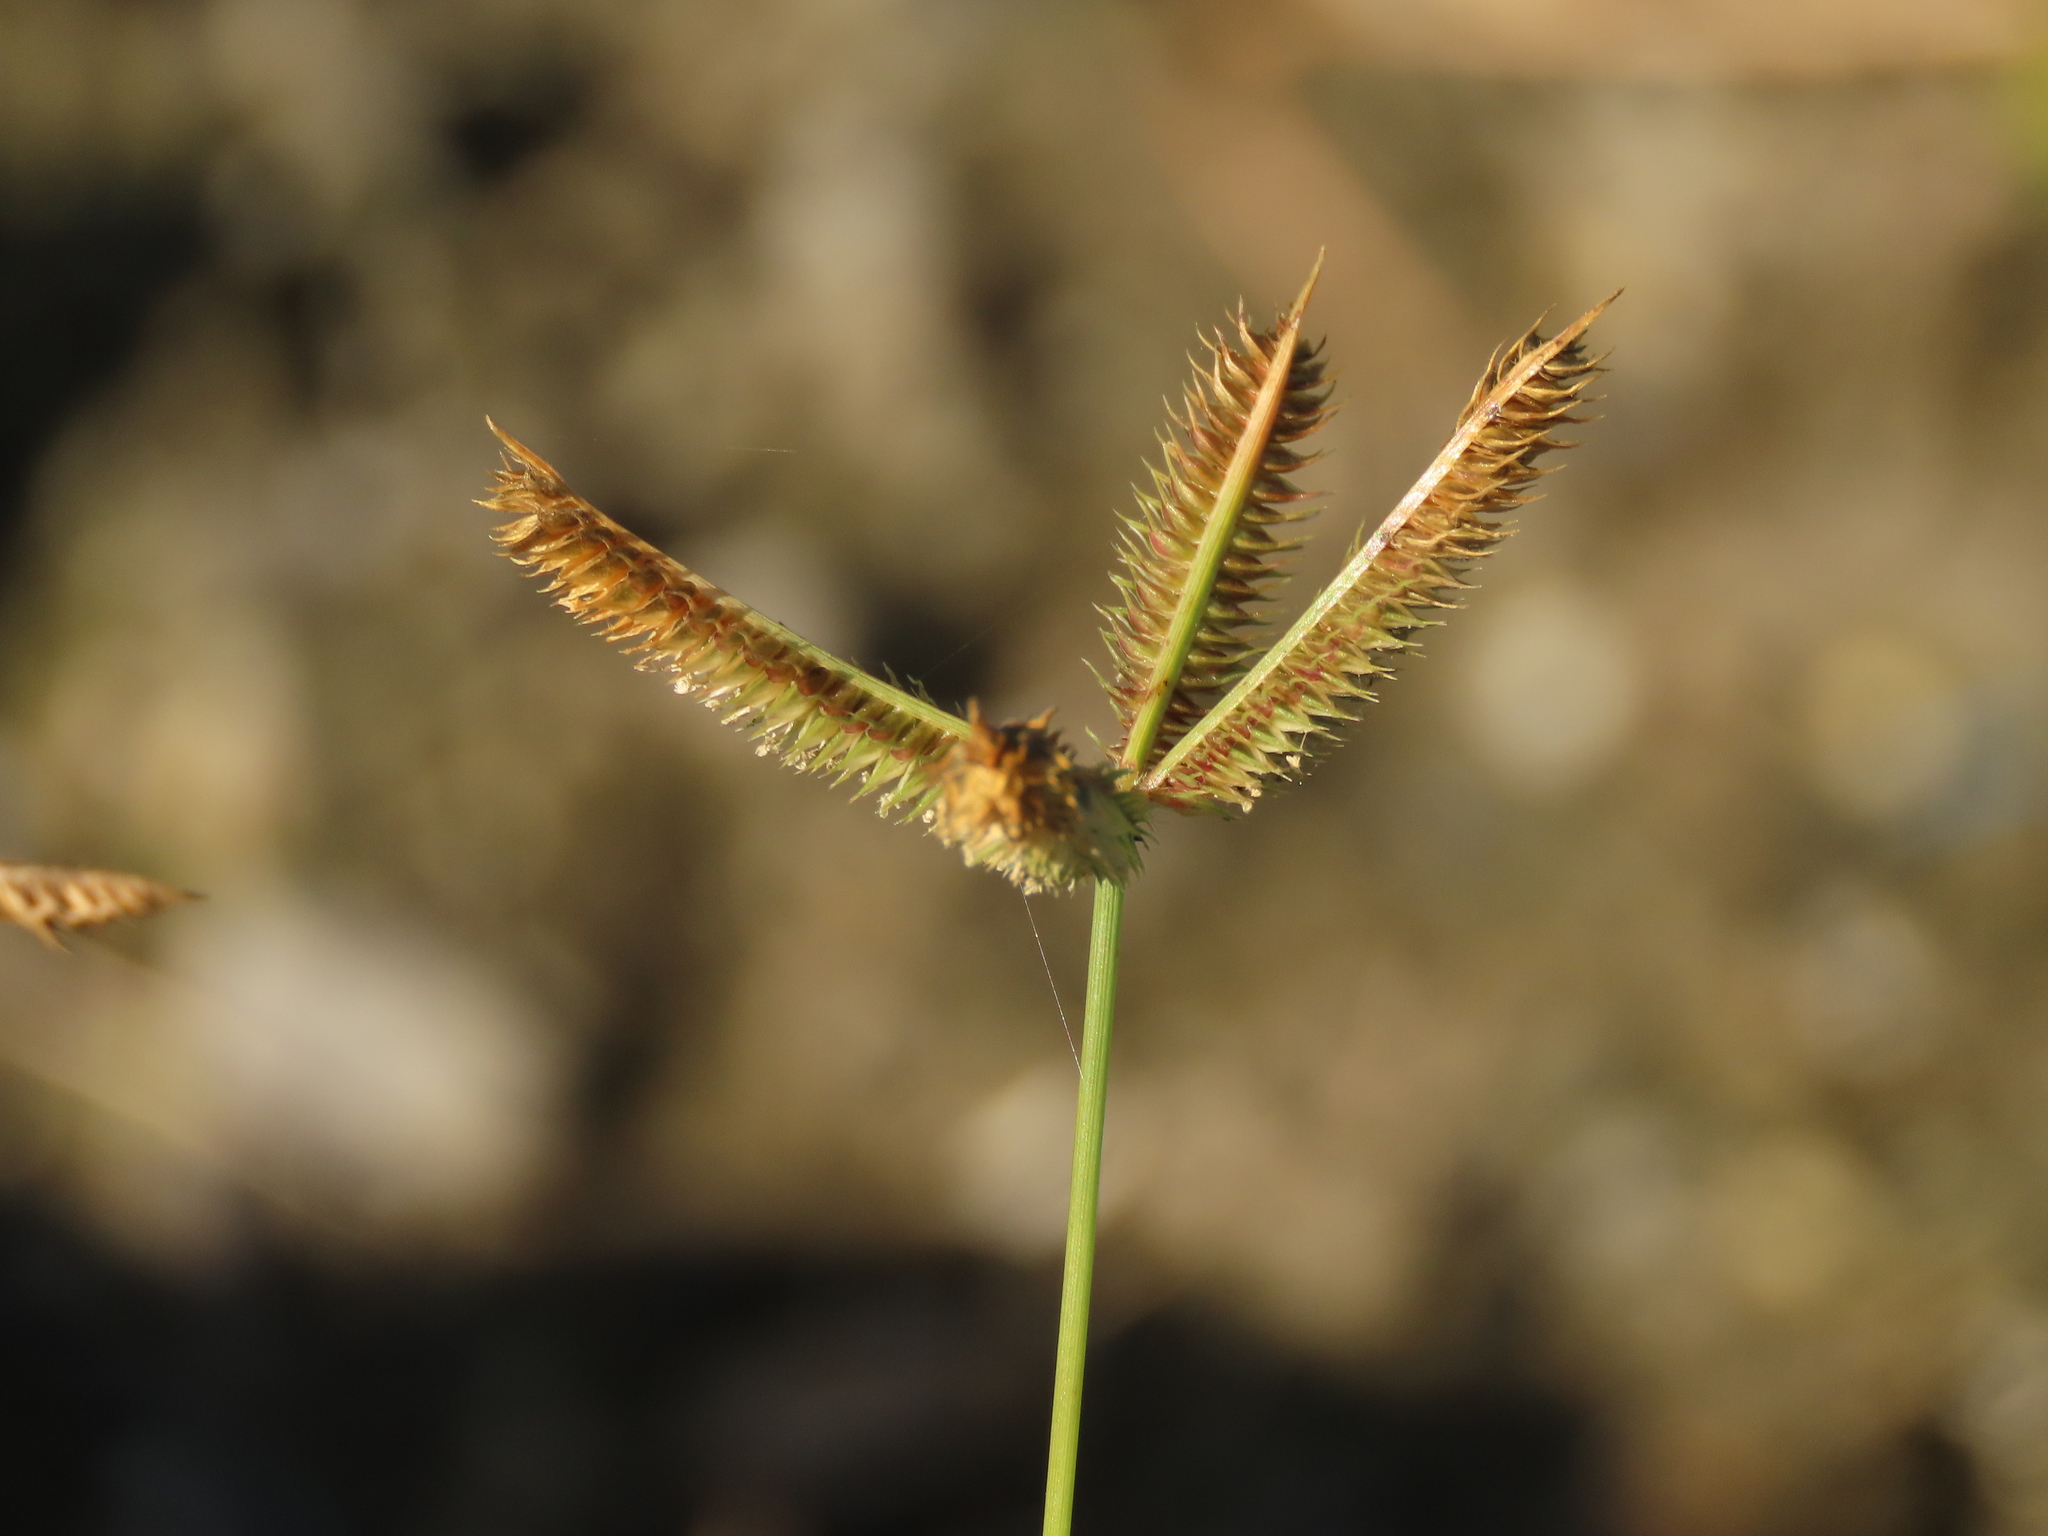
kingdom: Plantae
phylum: Tracheophyta
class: Liliopsida
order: Poales
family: Poaceae
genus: Dactyloctenium
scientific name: Dactyloctenium aegyptium
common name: Egyptian grass
